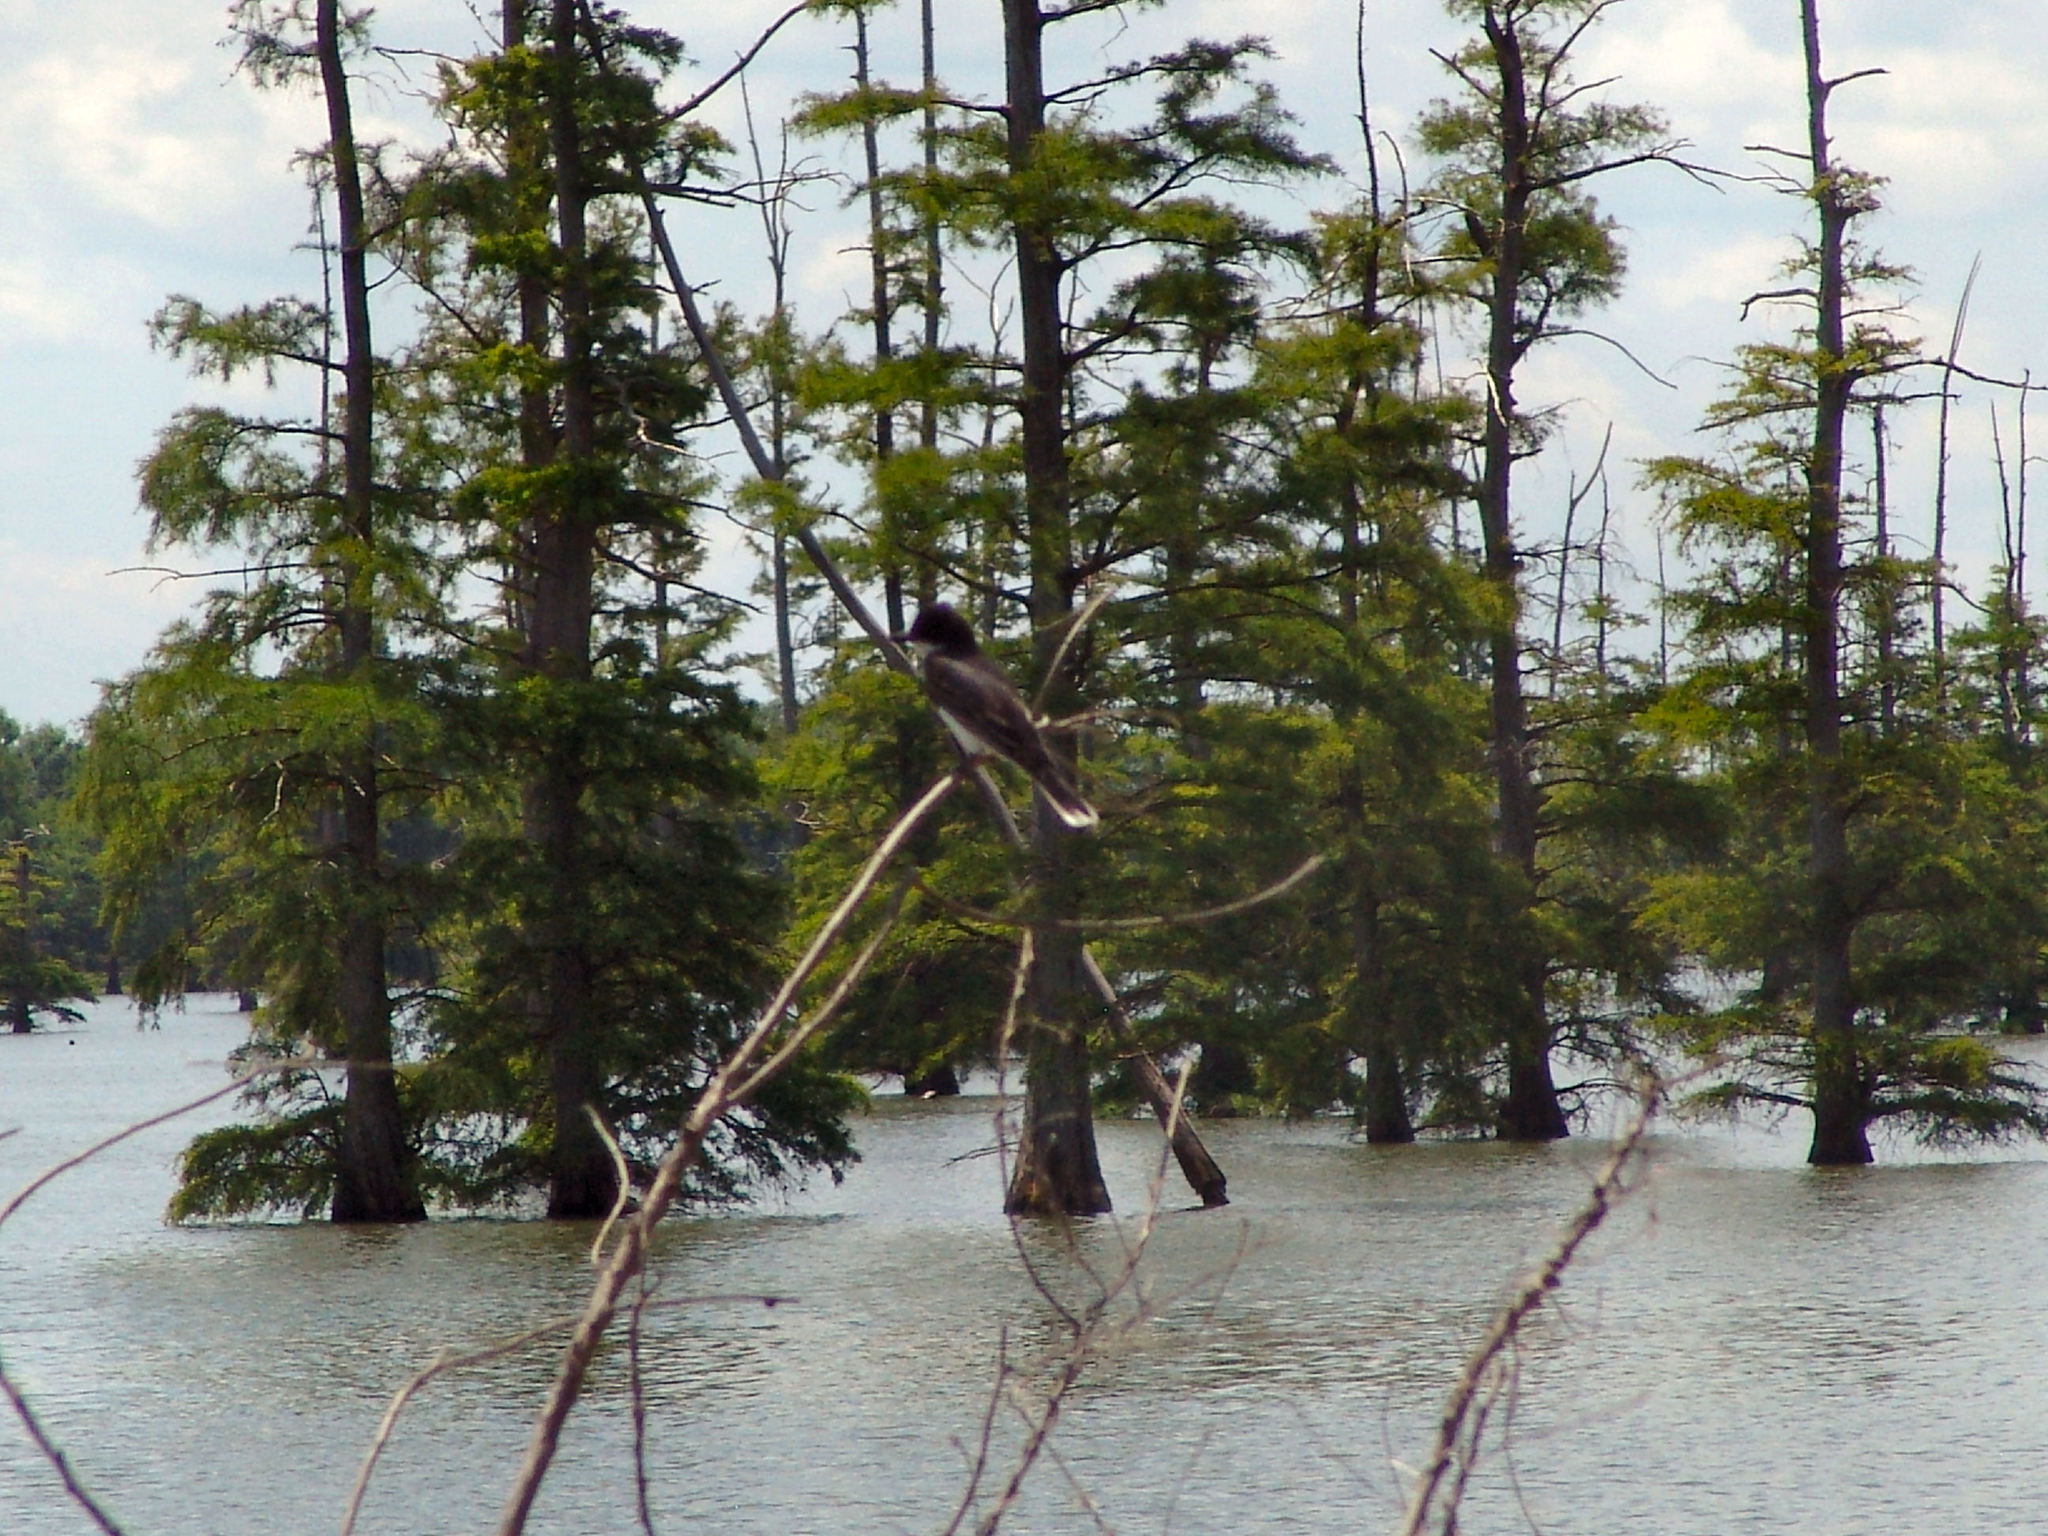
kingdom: Animalia
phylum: Chordata
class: Aves
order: Passeriformes
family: Tyrannidae
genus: Tyrannus
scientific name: Tyrannus tyrannus
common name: Eastern kingbird
